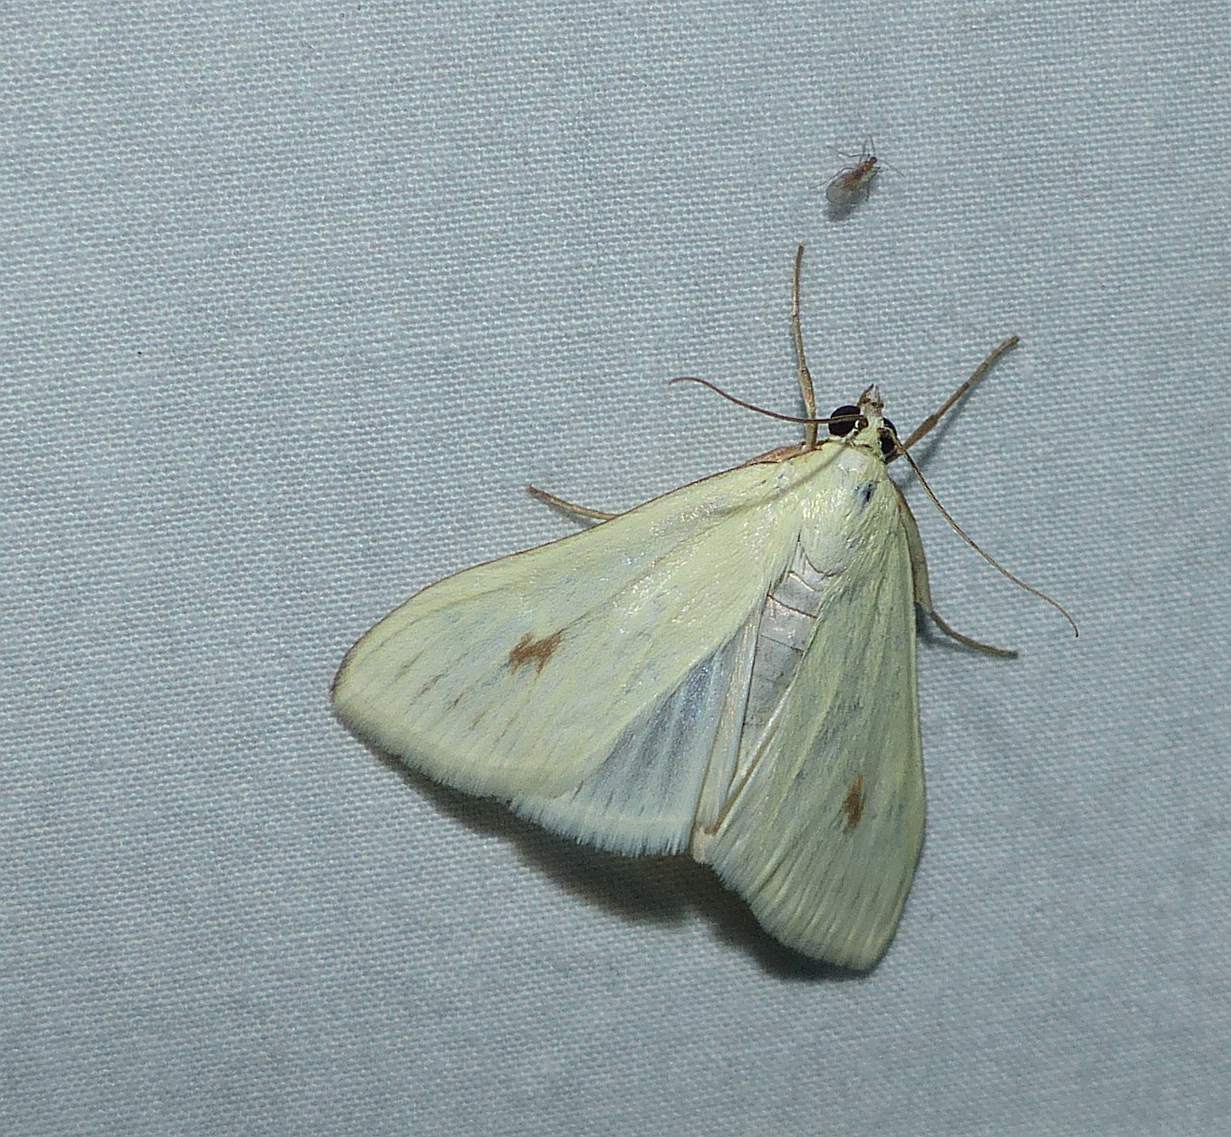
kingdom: Animalia
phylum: Arthropoda
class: Insecta
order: Lepidoptera
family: Crambidae
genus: Sitochroa
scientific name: Sitochroa palealis
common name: Greenish-yellow sitochroa moth
